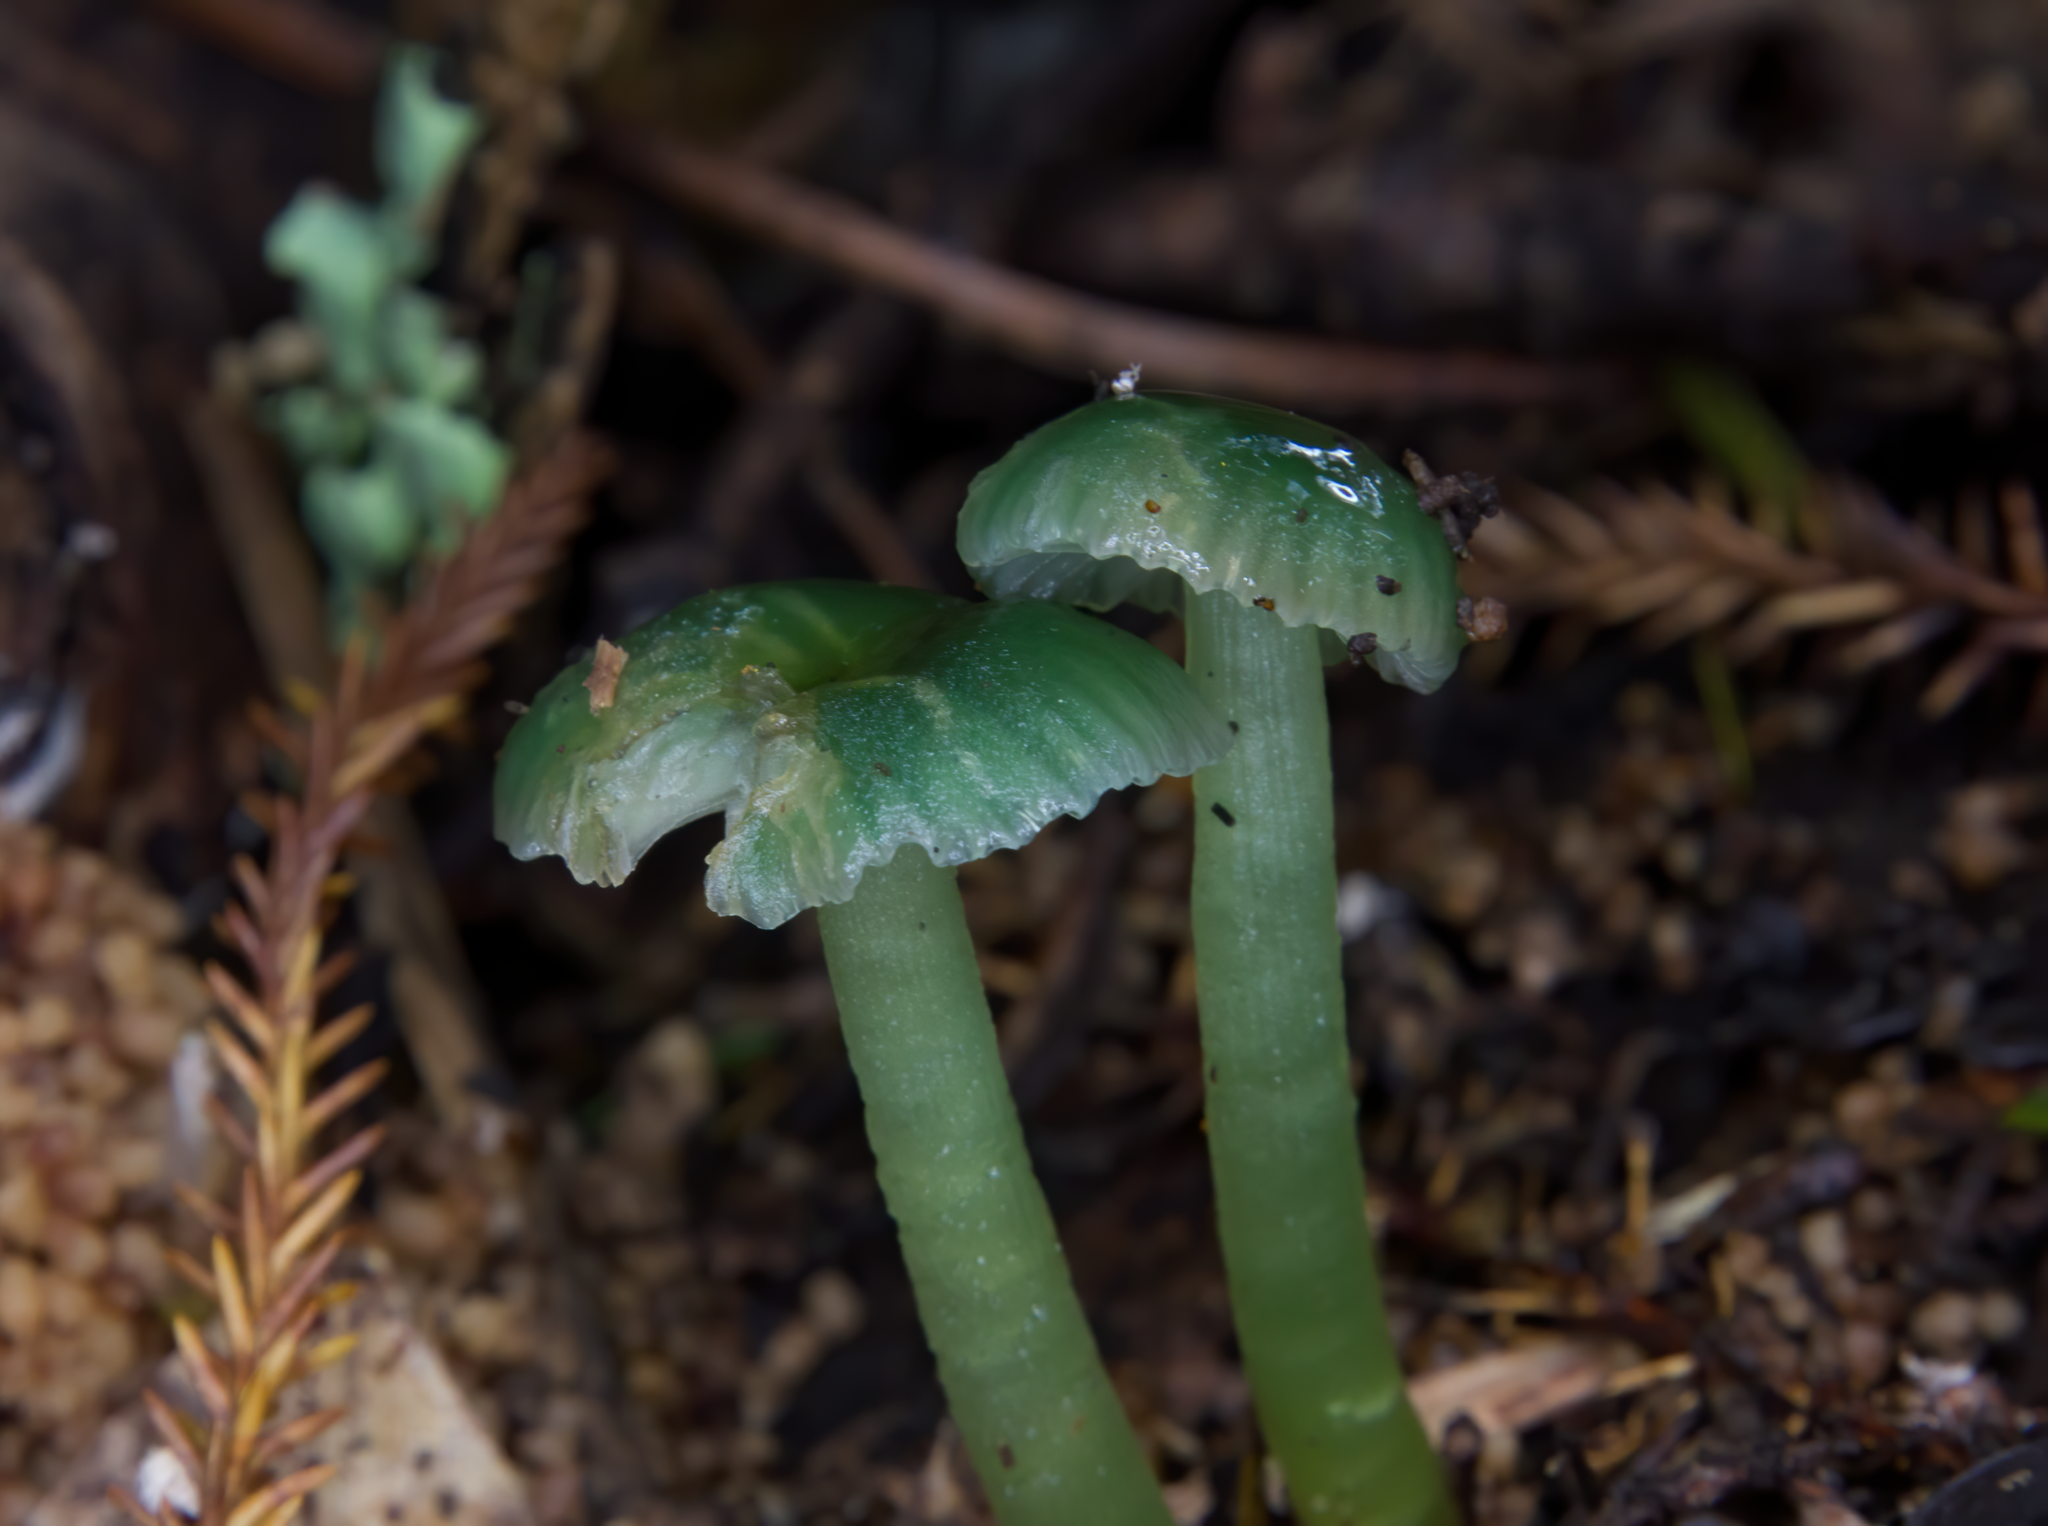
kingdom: Fungi
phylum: Basidiomycota
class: Agaricomycetes
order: Agaricales
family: Hygrophoraceae
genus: Gliophorus
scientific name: Gliophorus graminicolor
